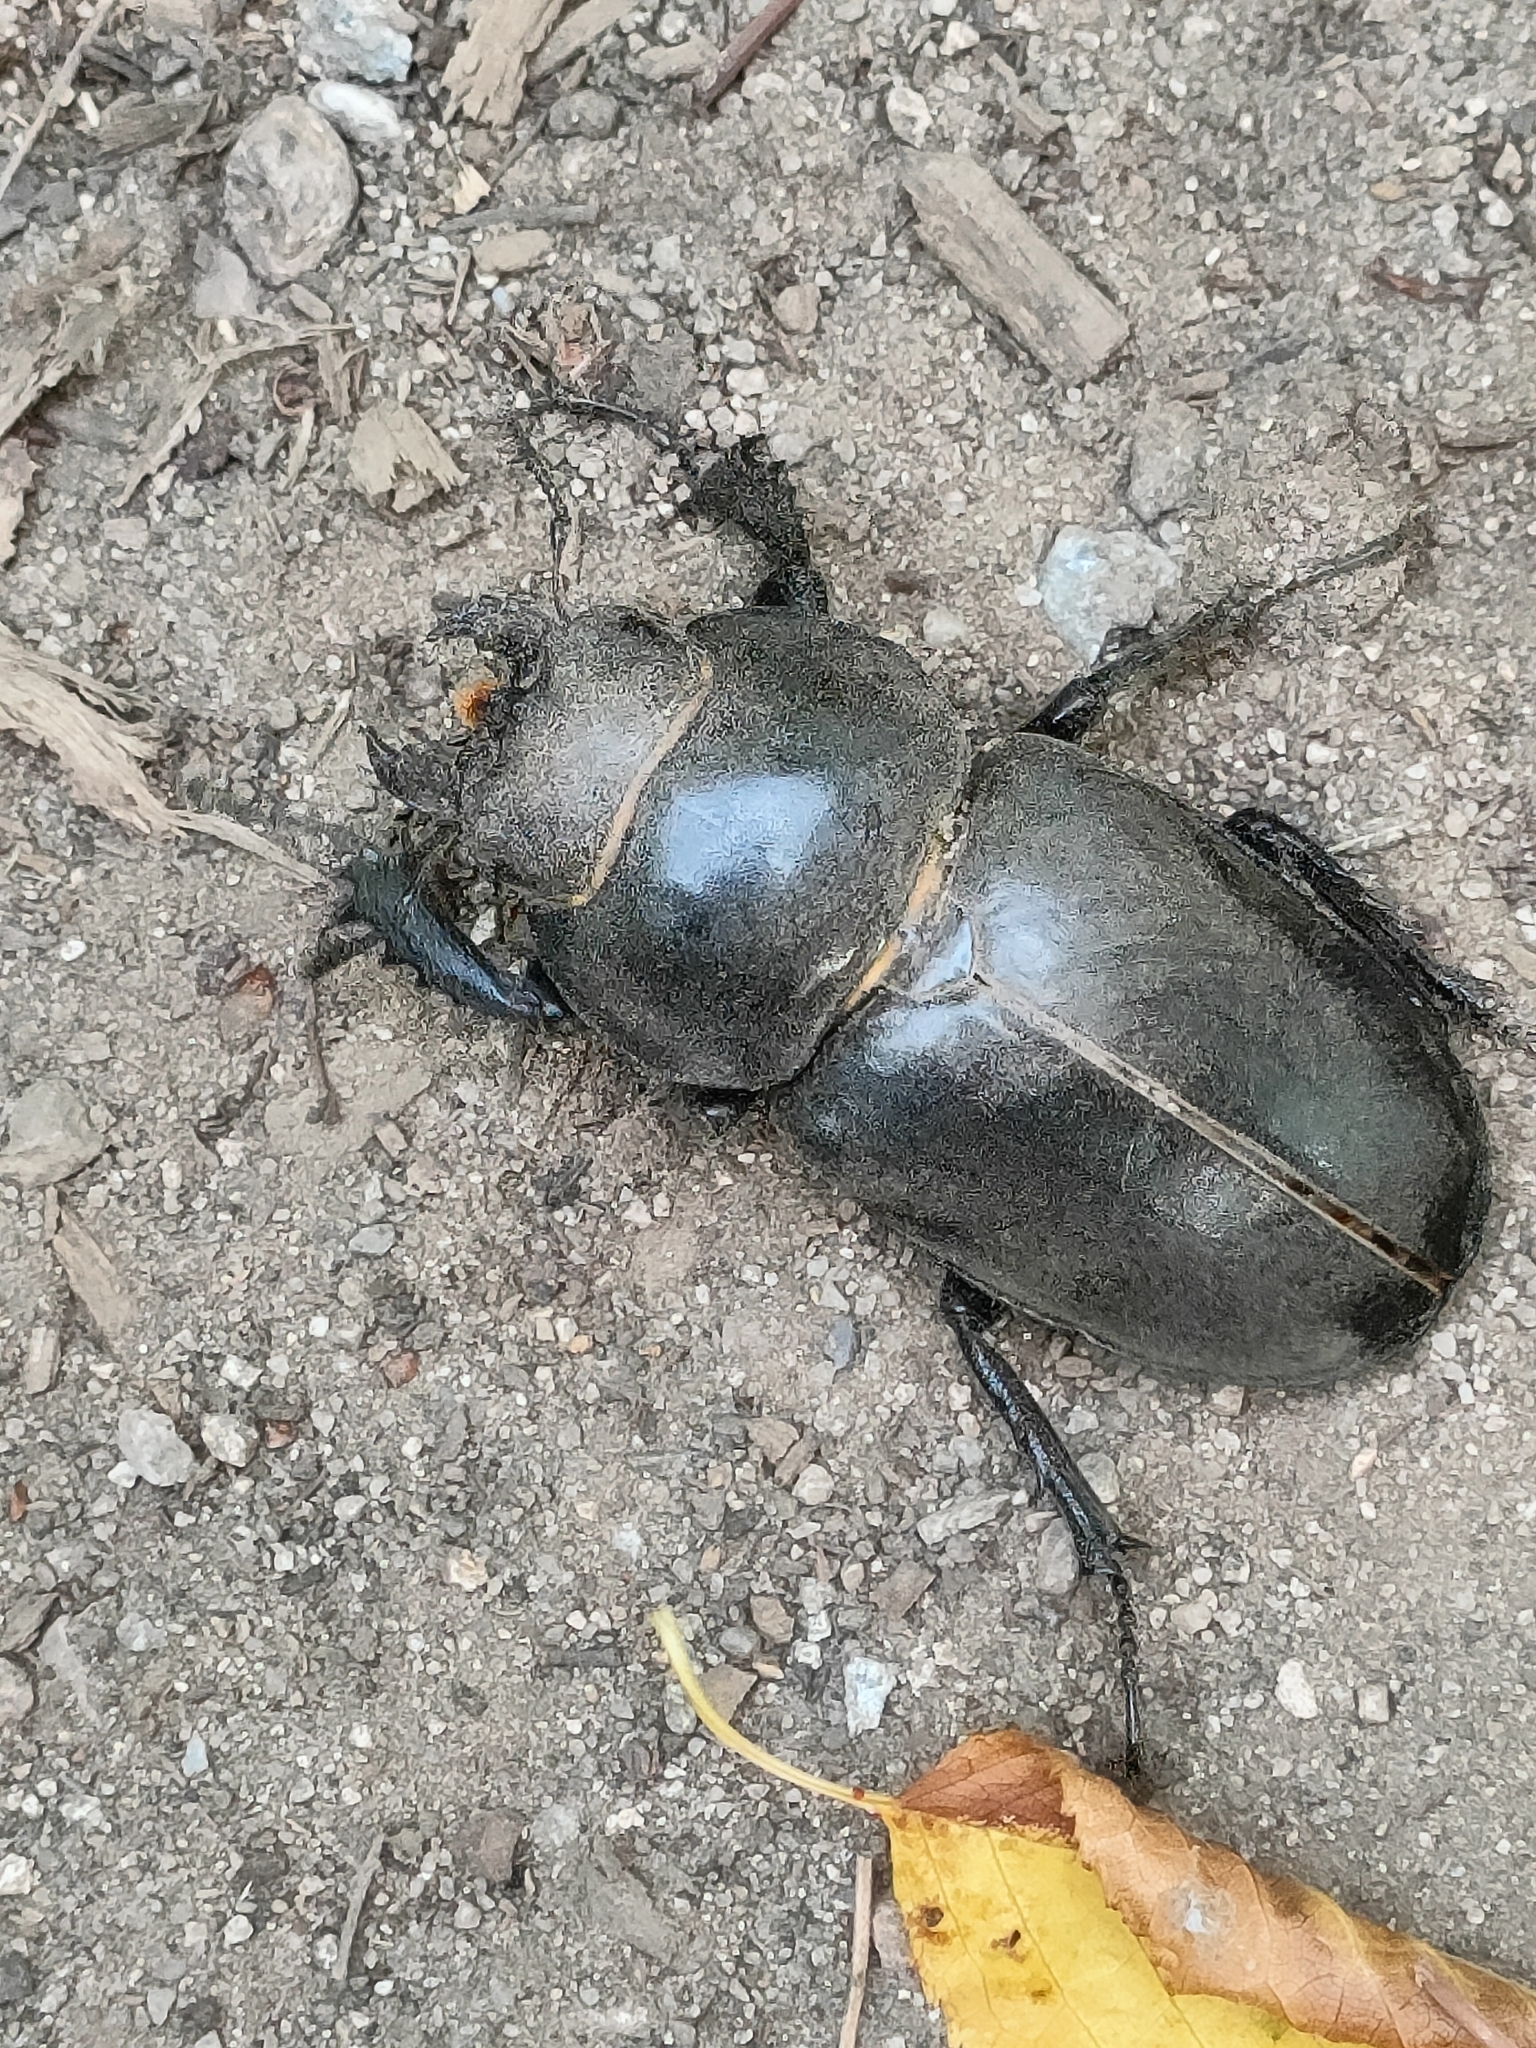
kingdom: Animalia
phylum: Arthropoda
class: Insecta
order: Coleoptera
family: Lucanidae
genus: Lucanus
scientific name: Lucanus cervus
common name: Stag beetle
